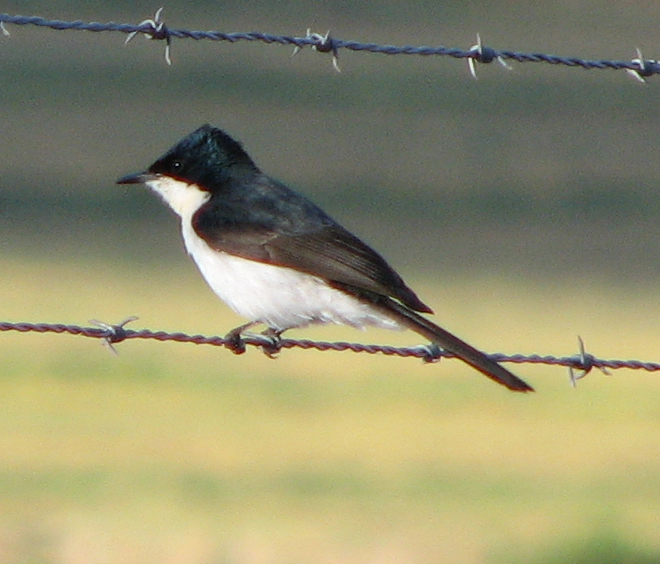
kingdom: Animalia
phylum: Chordata
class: Aves
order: Passeriformes
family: Monarchidae
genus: Myiagra
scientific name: Myiagra inquieta
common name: Restless flycatcher
